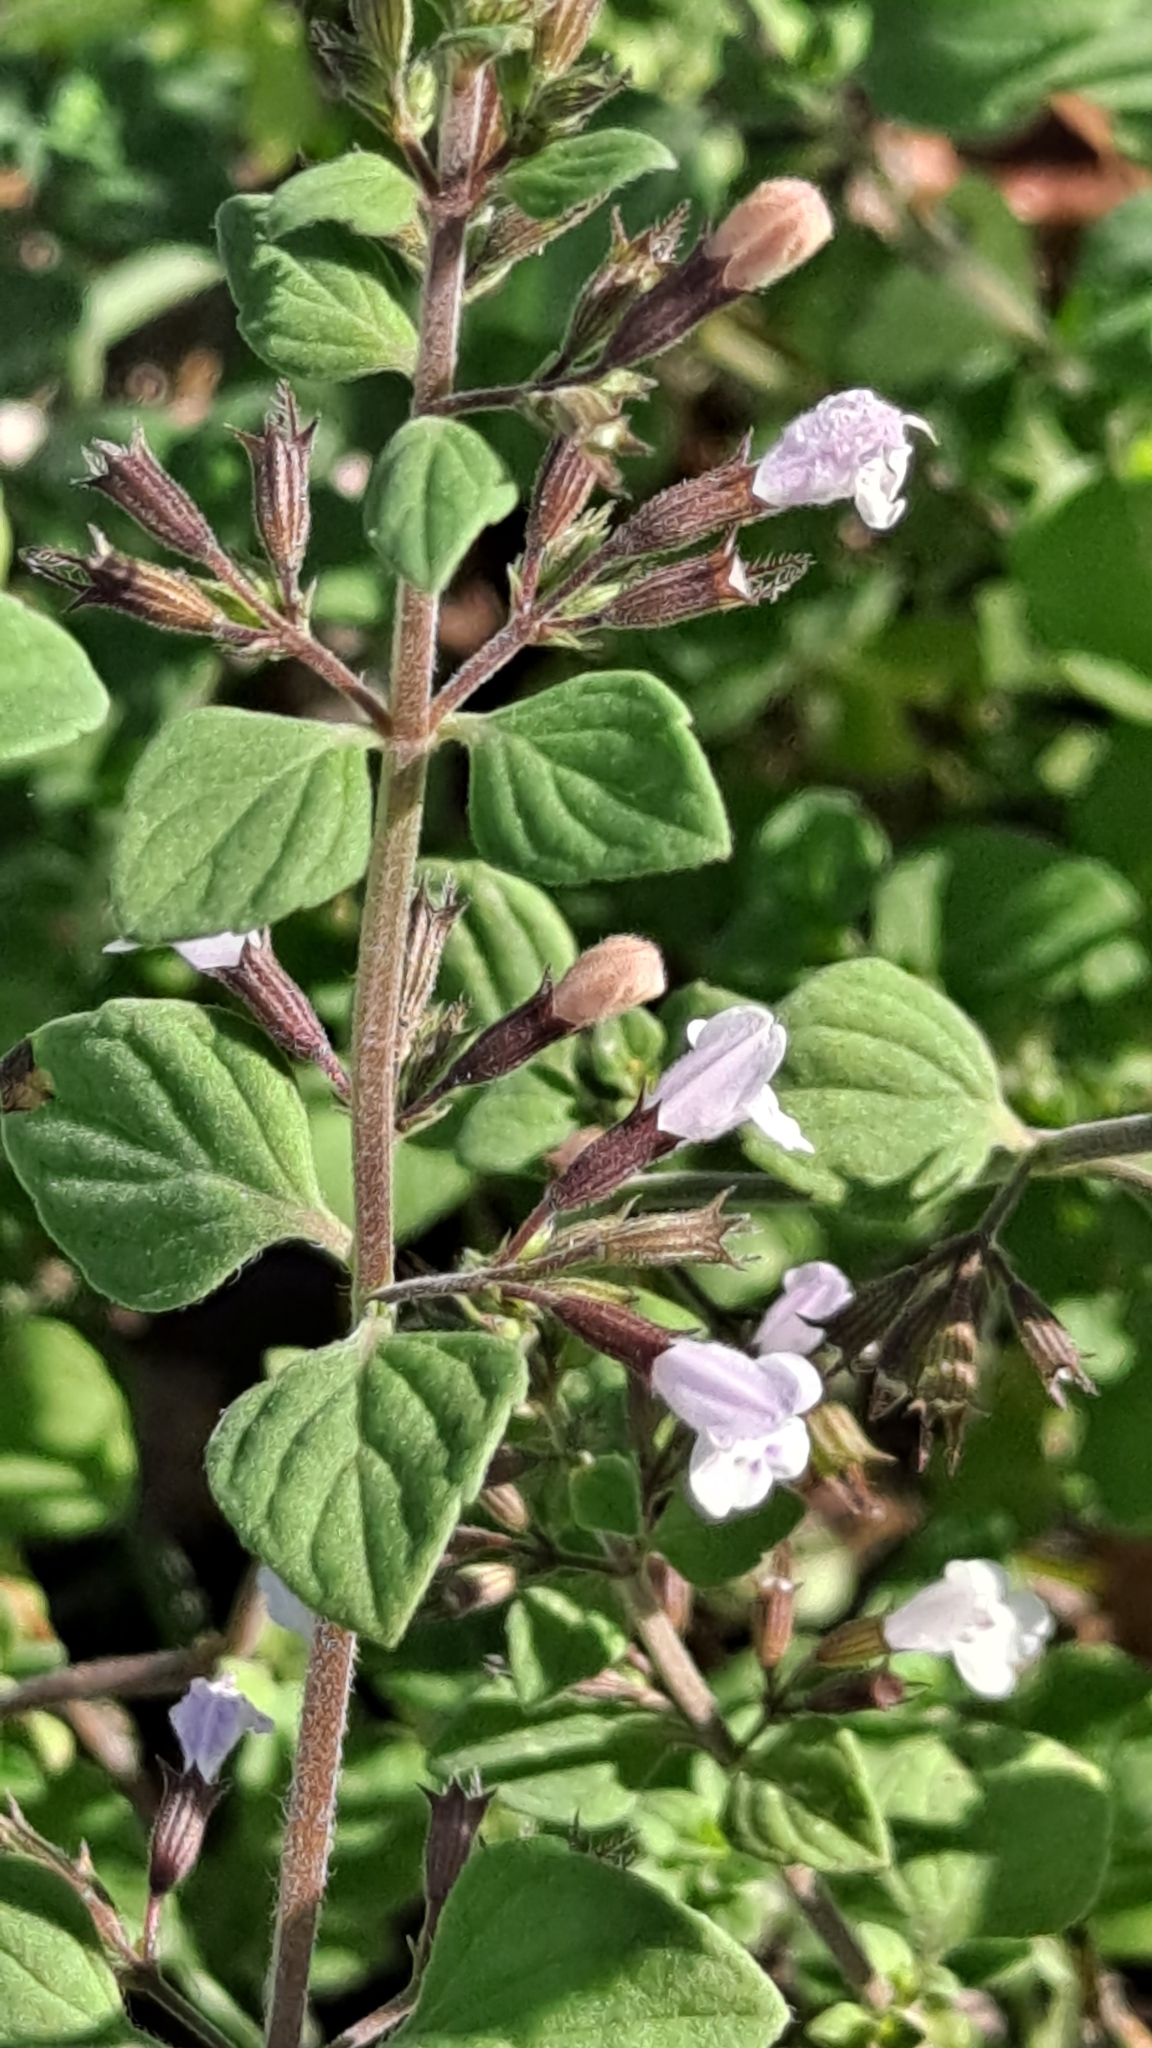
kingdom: Plantae
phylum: Tracheophyta
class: Magnoliopsida
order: Lamiales
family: Lamiaceae
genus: Clinopodium
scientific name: Clinopodium nepeta
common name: Lesser calamint
